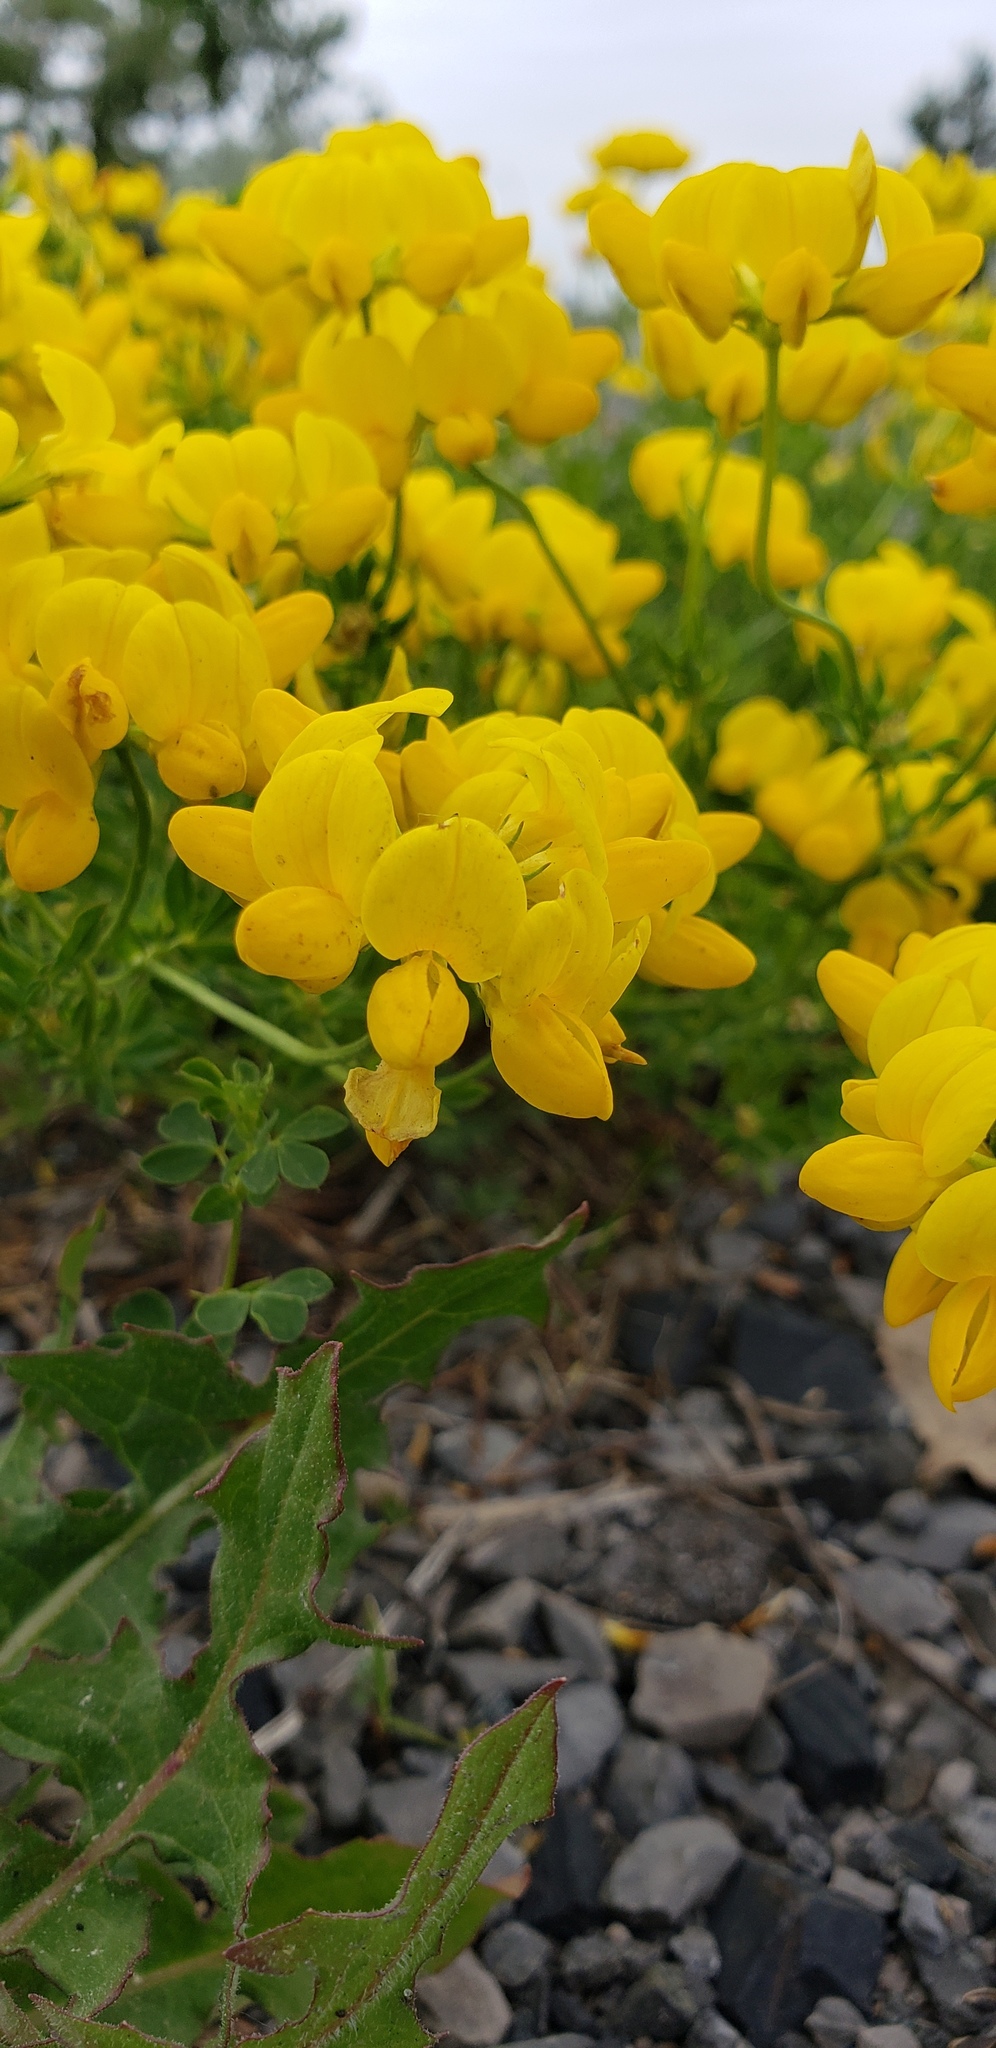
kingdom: Plantae
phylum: Tracheophyta
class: Magnoliopsida
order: Fabales
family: Fabaceae
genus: Lotus
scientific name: Lotus corniculatus
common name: Common bird's-foot-trefoil
